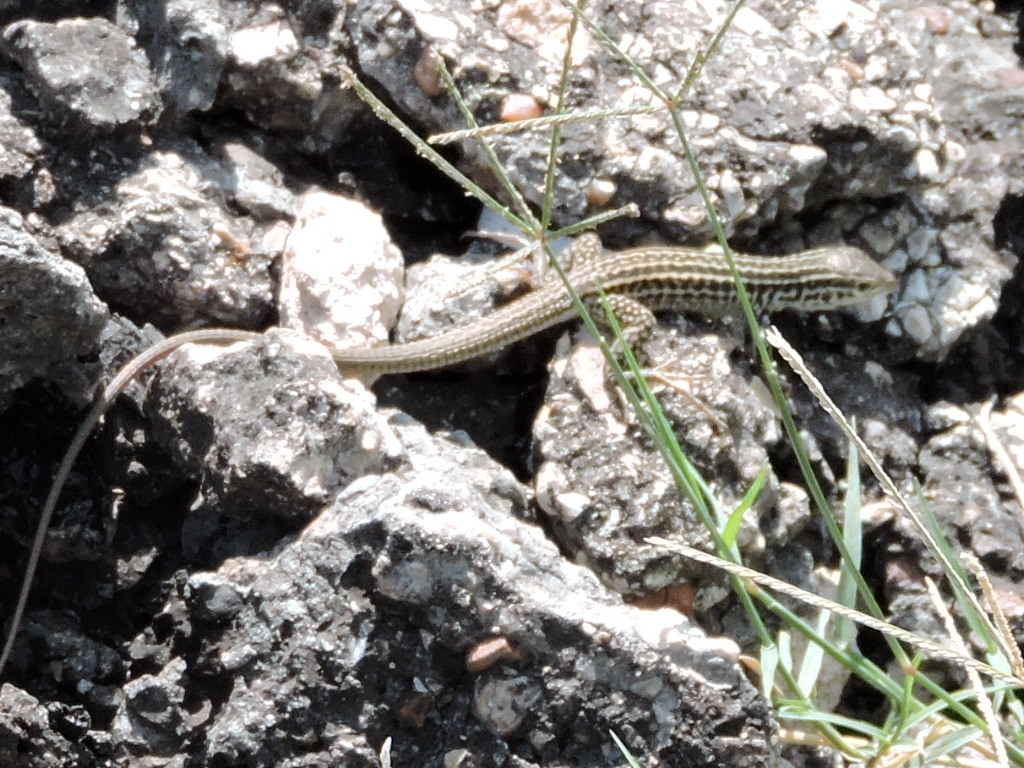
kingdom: Animalia
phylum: Chordata
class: Squamata
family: Teiidae
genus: Aspidoscelis
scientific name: Aspidoscelis tesselatus
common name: Common checkered whiptail [tesselata]
